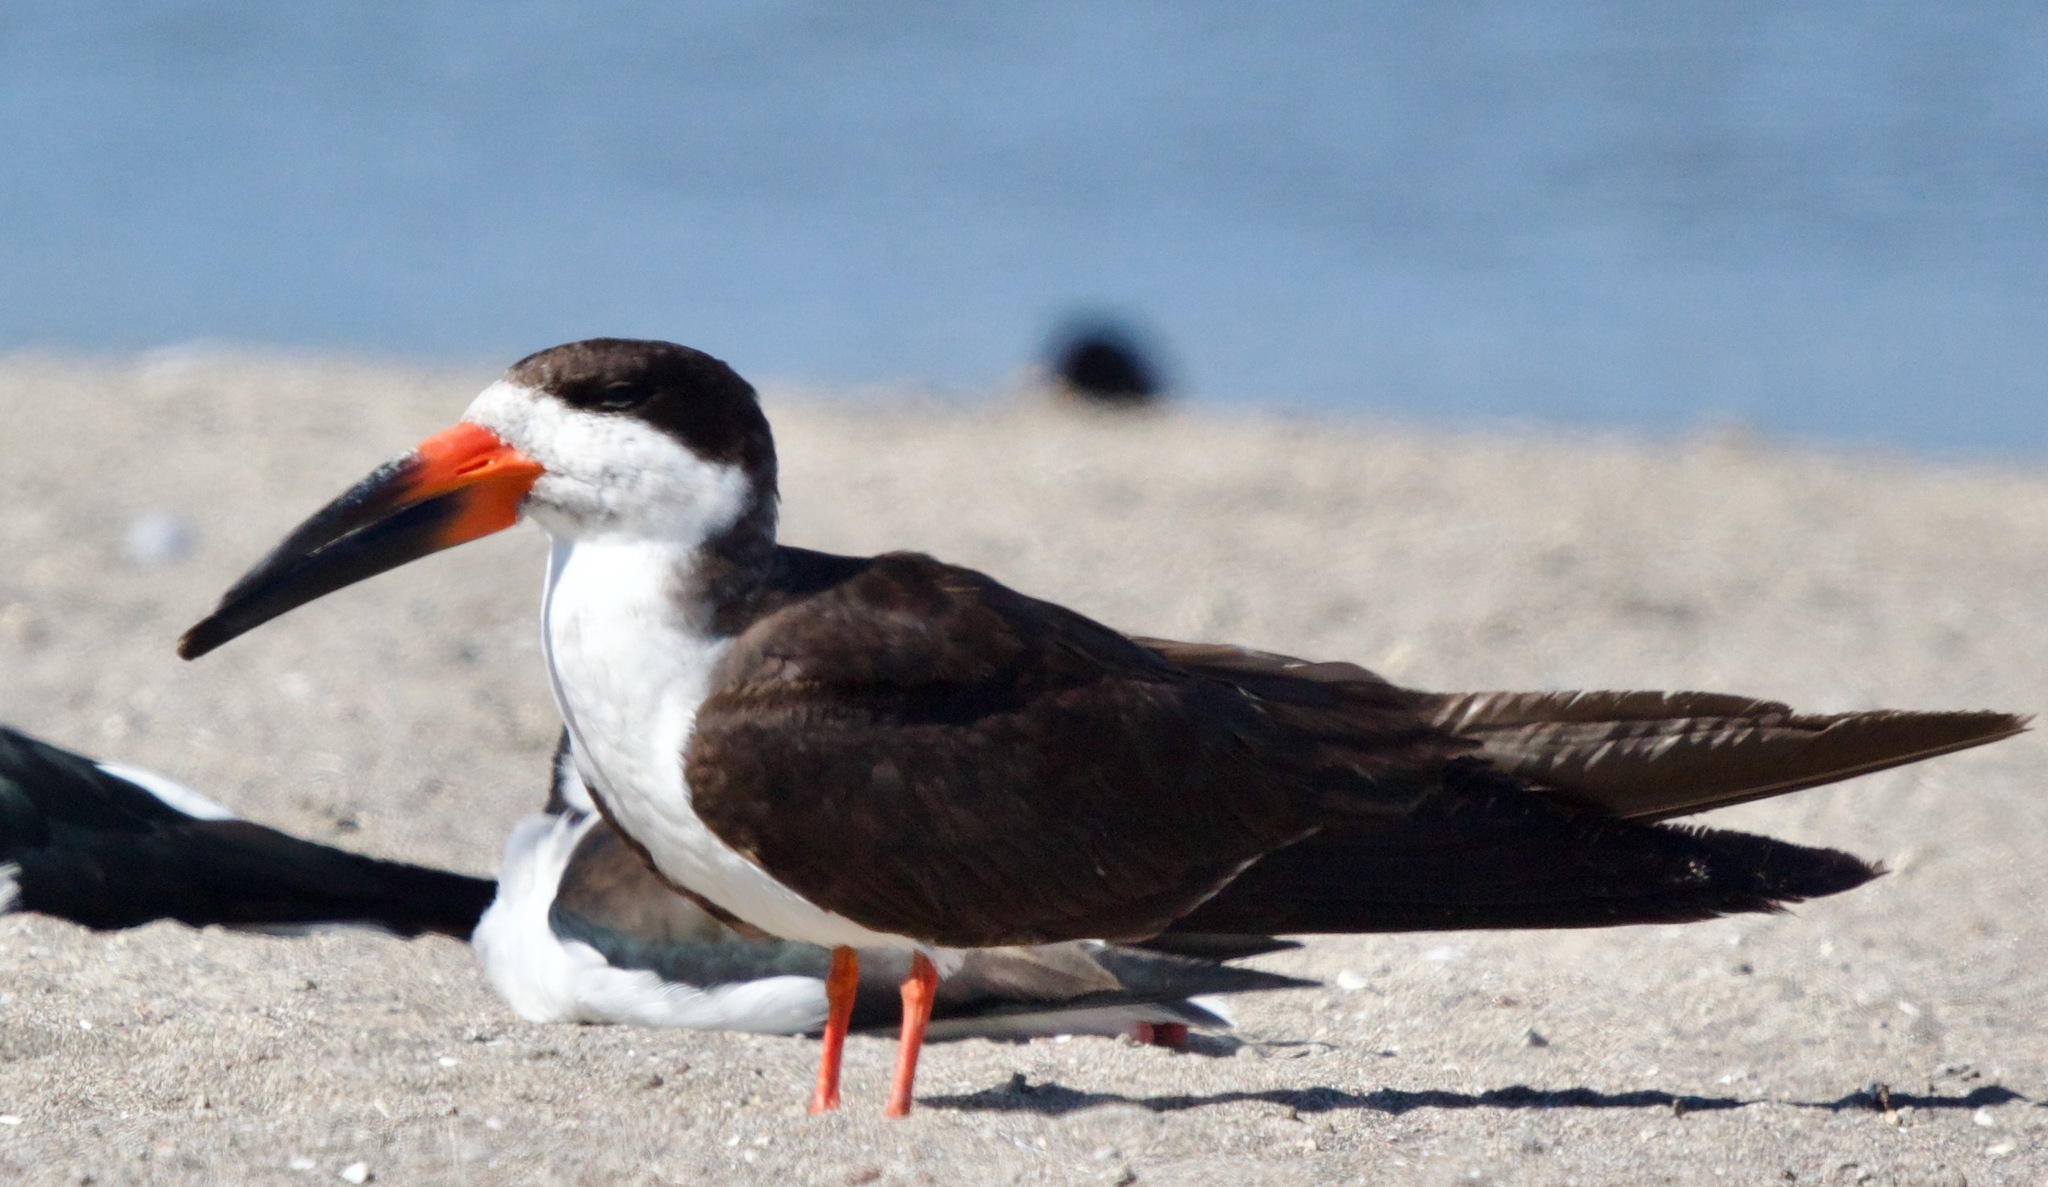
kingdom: Animalia
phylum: Chordata
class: Aves
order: Charadriiformes
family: Laridae
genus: Rynchops
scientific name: Rynchops niger
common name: Black skimmer
